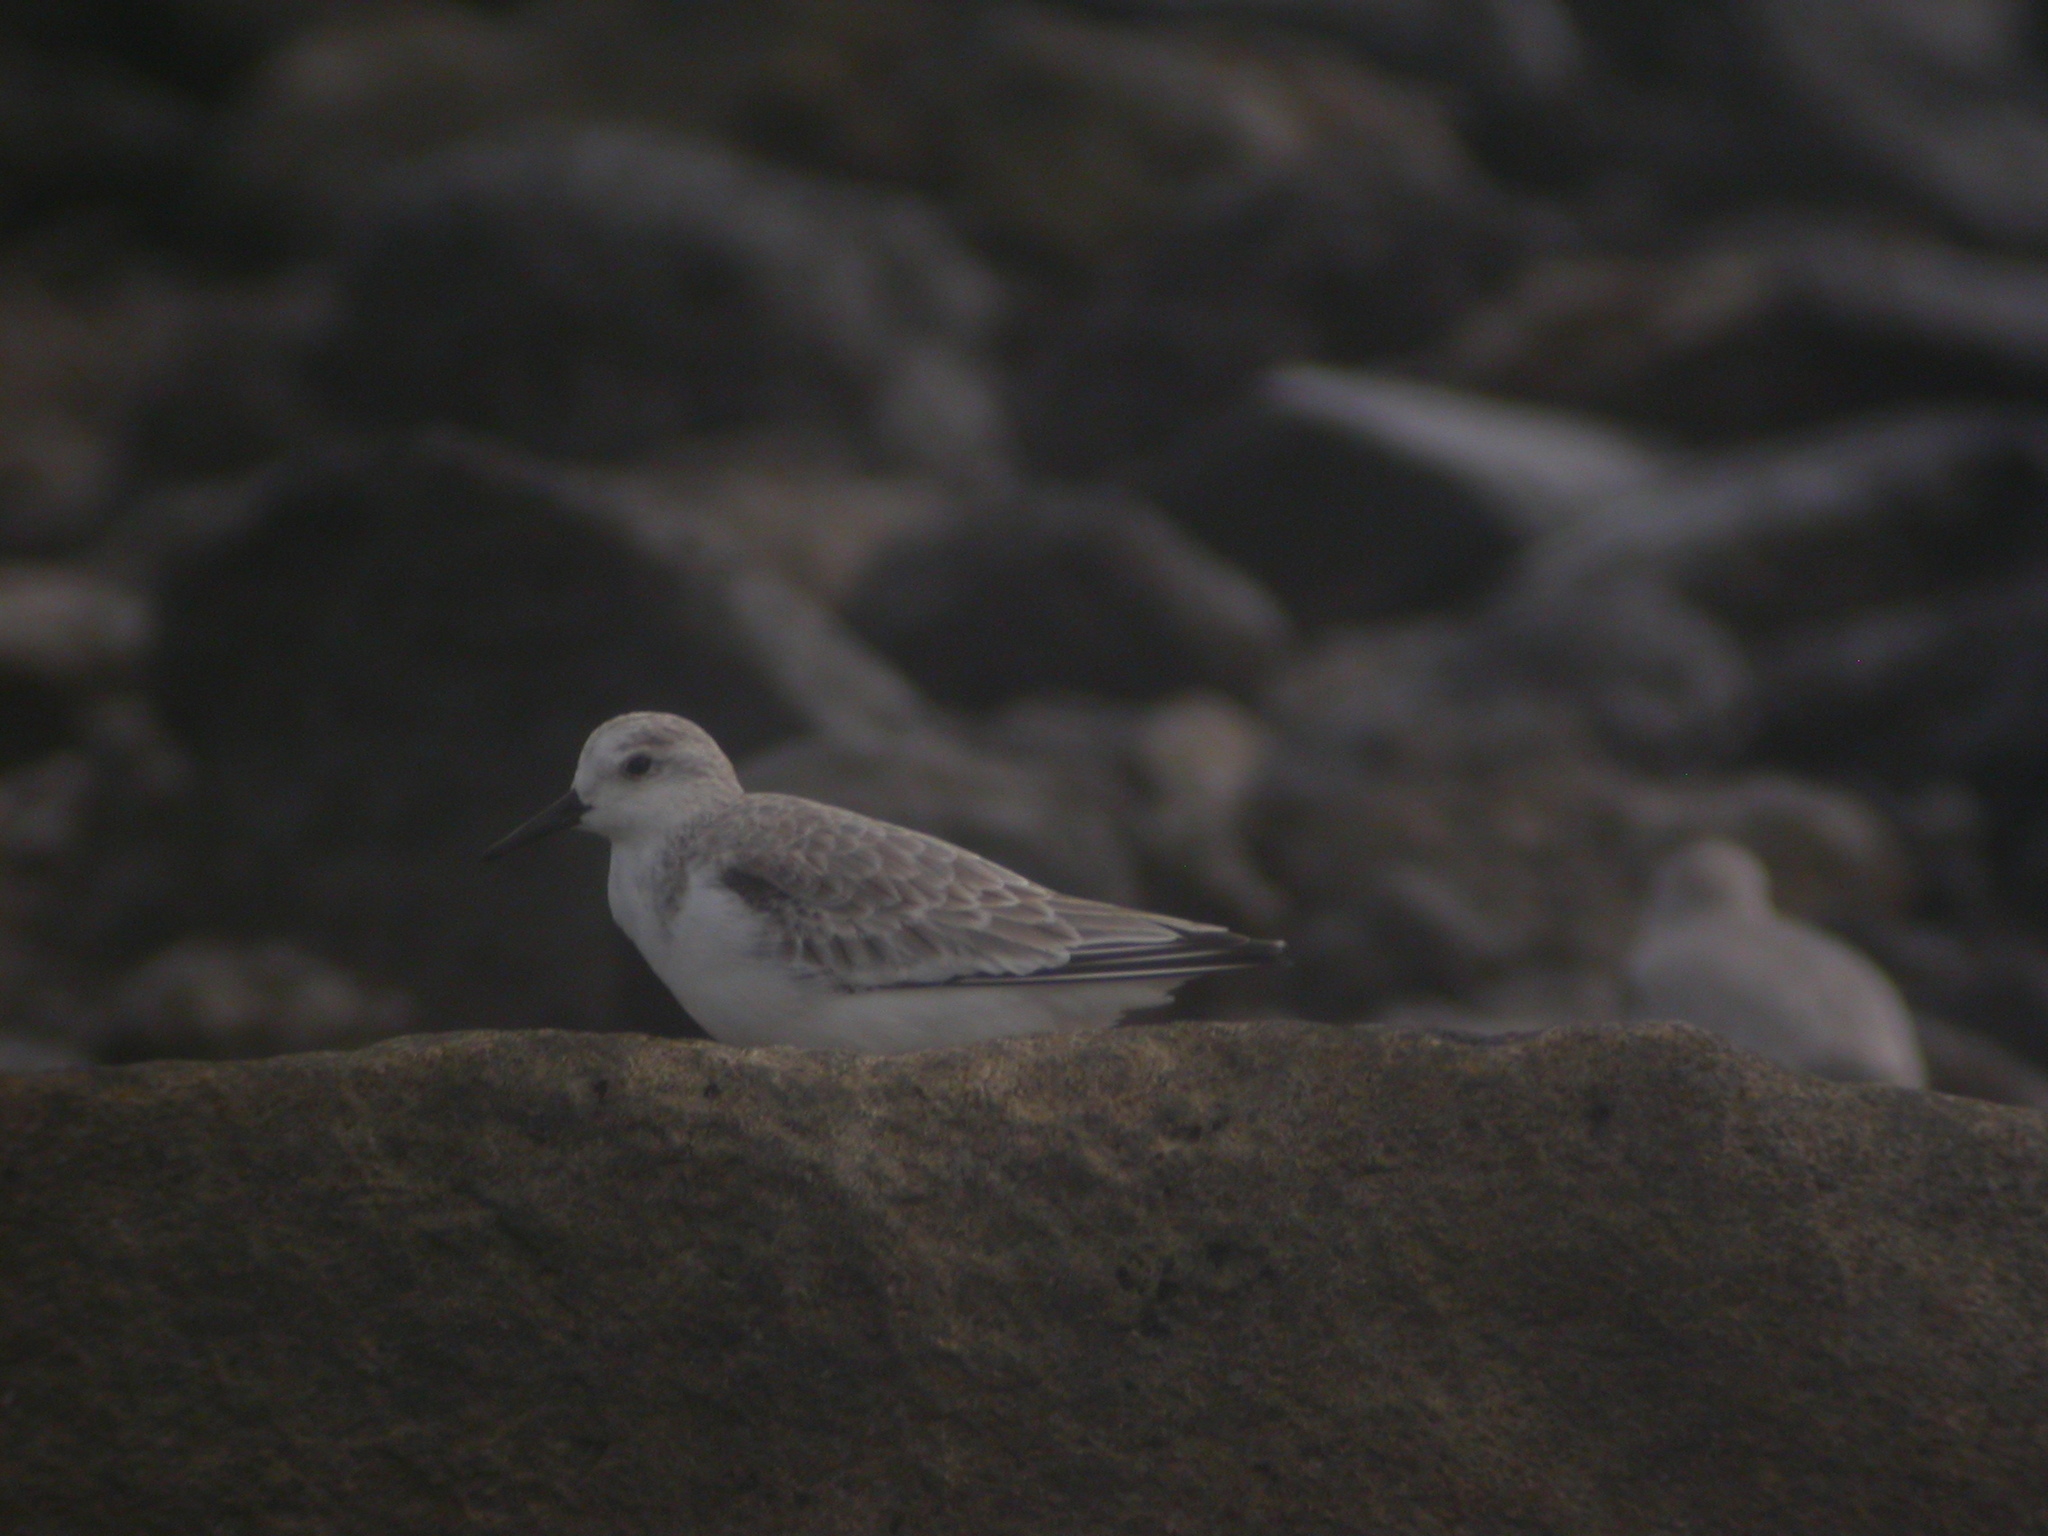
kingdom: Animalia
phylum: Chordata
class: Aves
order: Charadriiformes
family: Scolopacidae
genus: Calidris
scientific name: Calidris alba
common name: Sanderling
